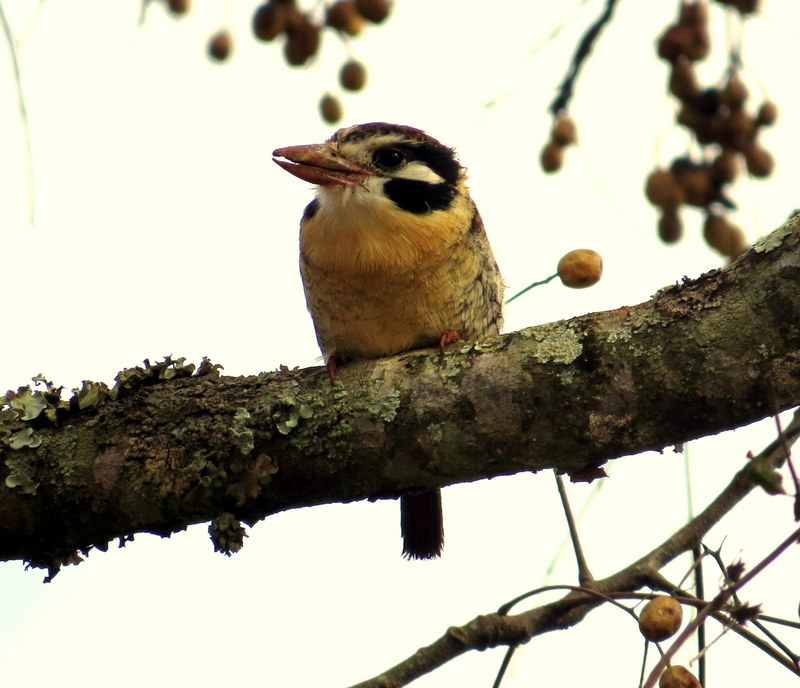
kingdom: Animalia
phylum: Chordata
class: Aves
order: Piciformes
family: Bucconidae
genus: Nystalus
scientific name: Nystalus chacuru
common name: White-eared puffbird
